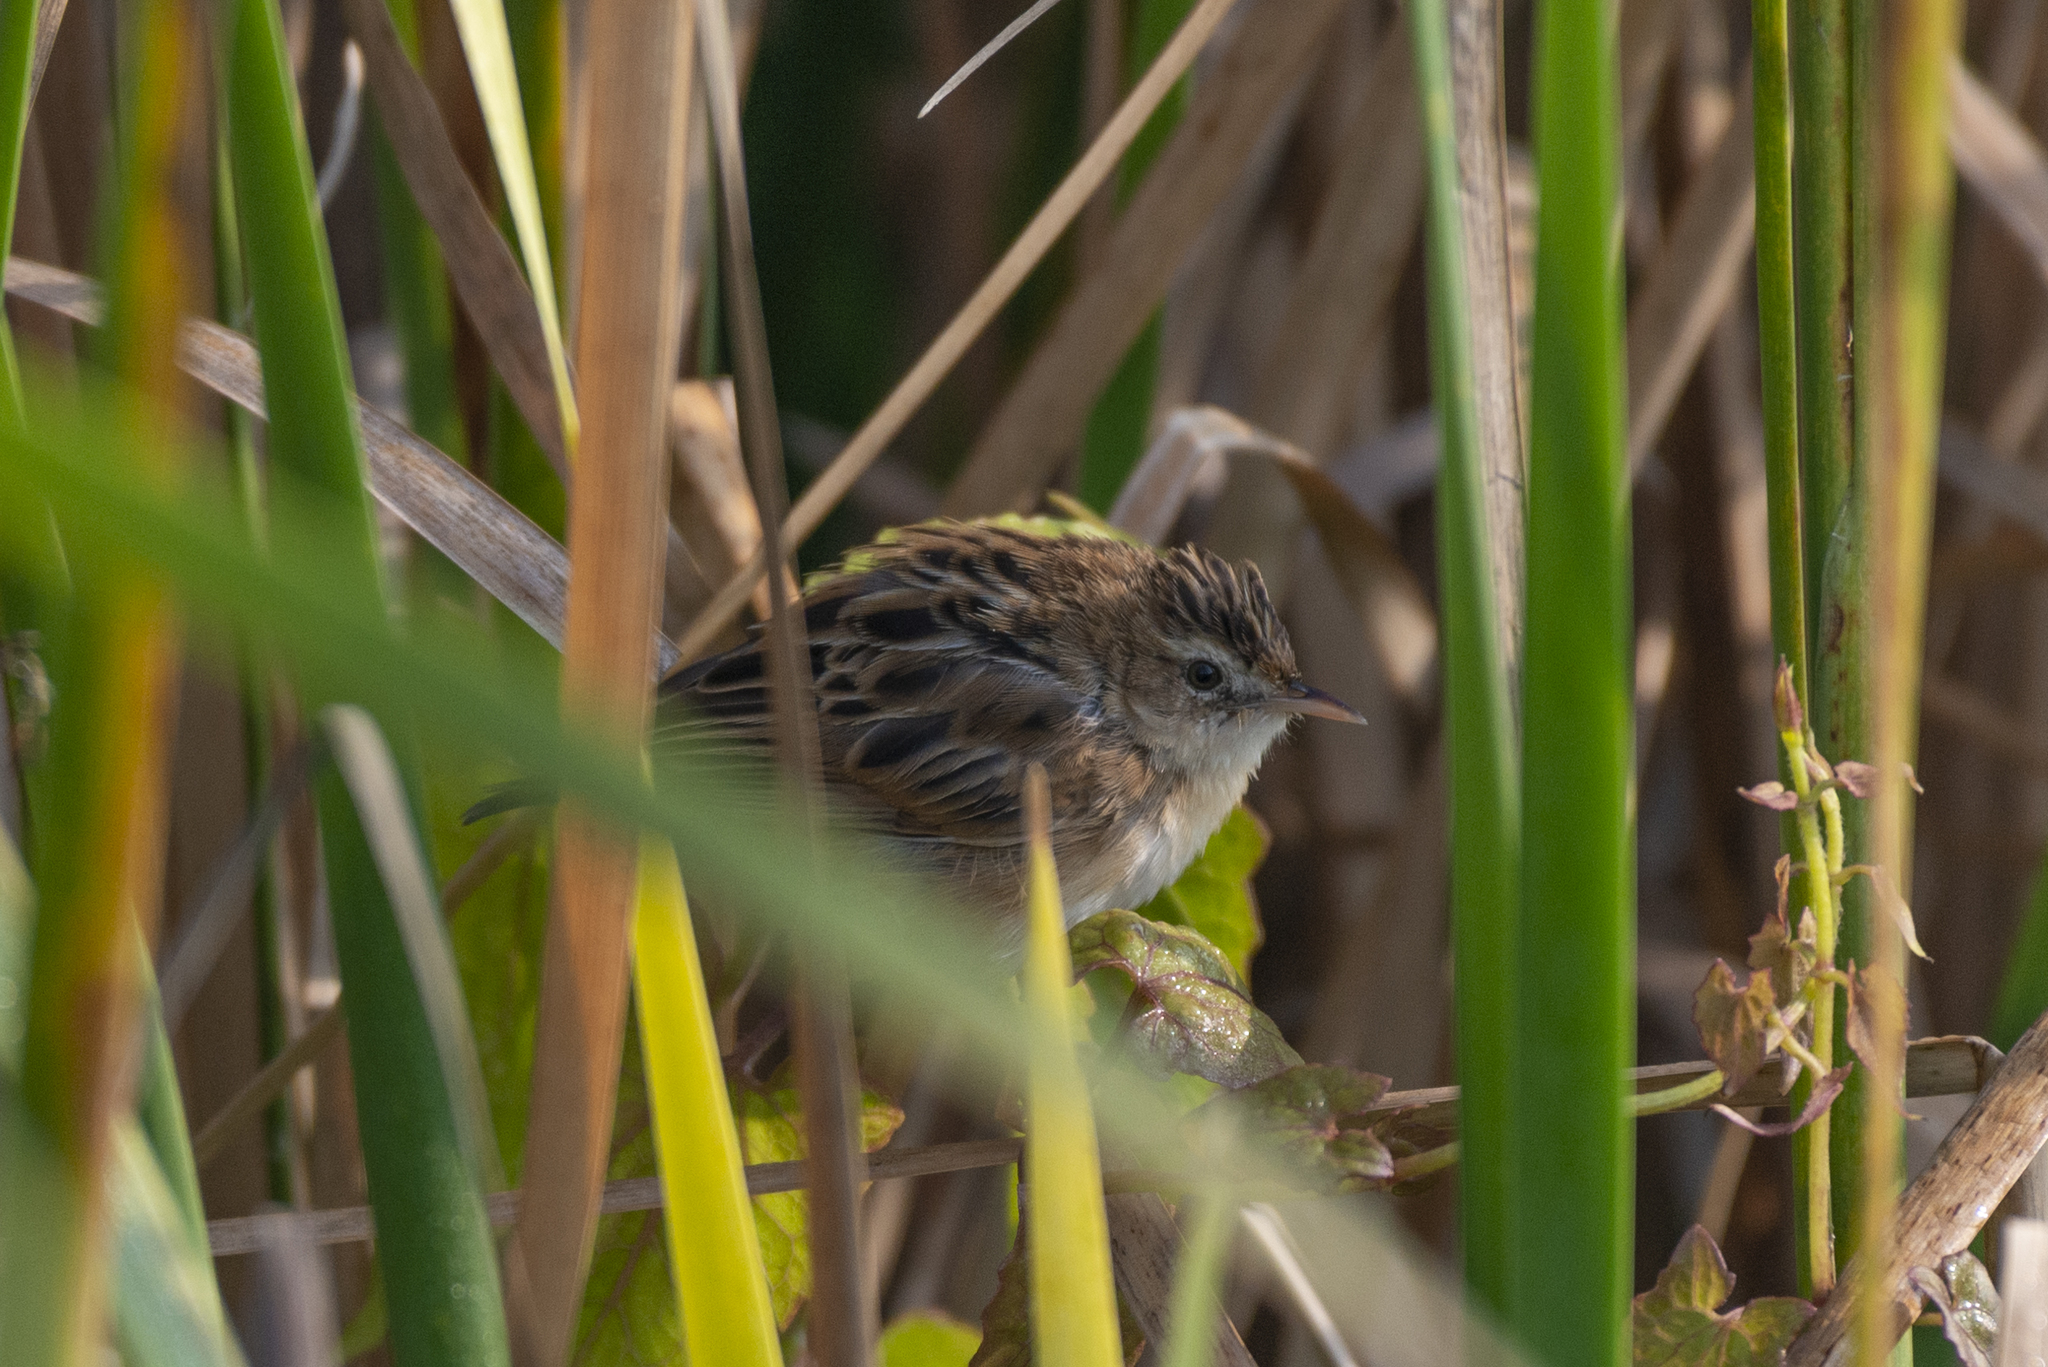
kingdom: Animalia
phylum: Chordata
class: Aves
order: Passeriformes
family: Cisticolidae
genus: Cisticola
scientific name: Cisticola juncidis
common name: Zitting cisticola
